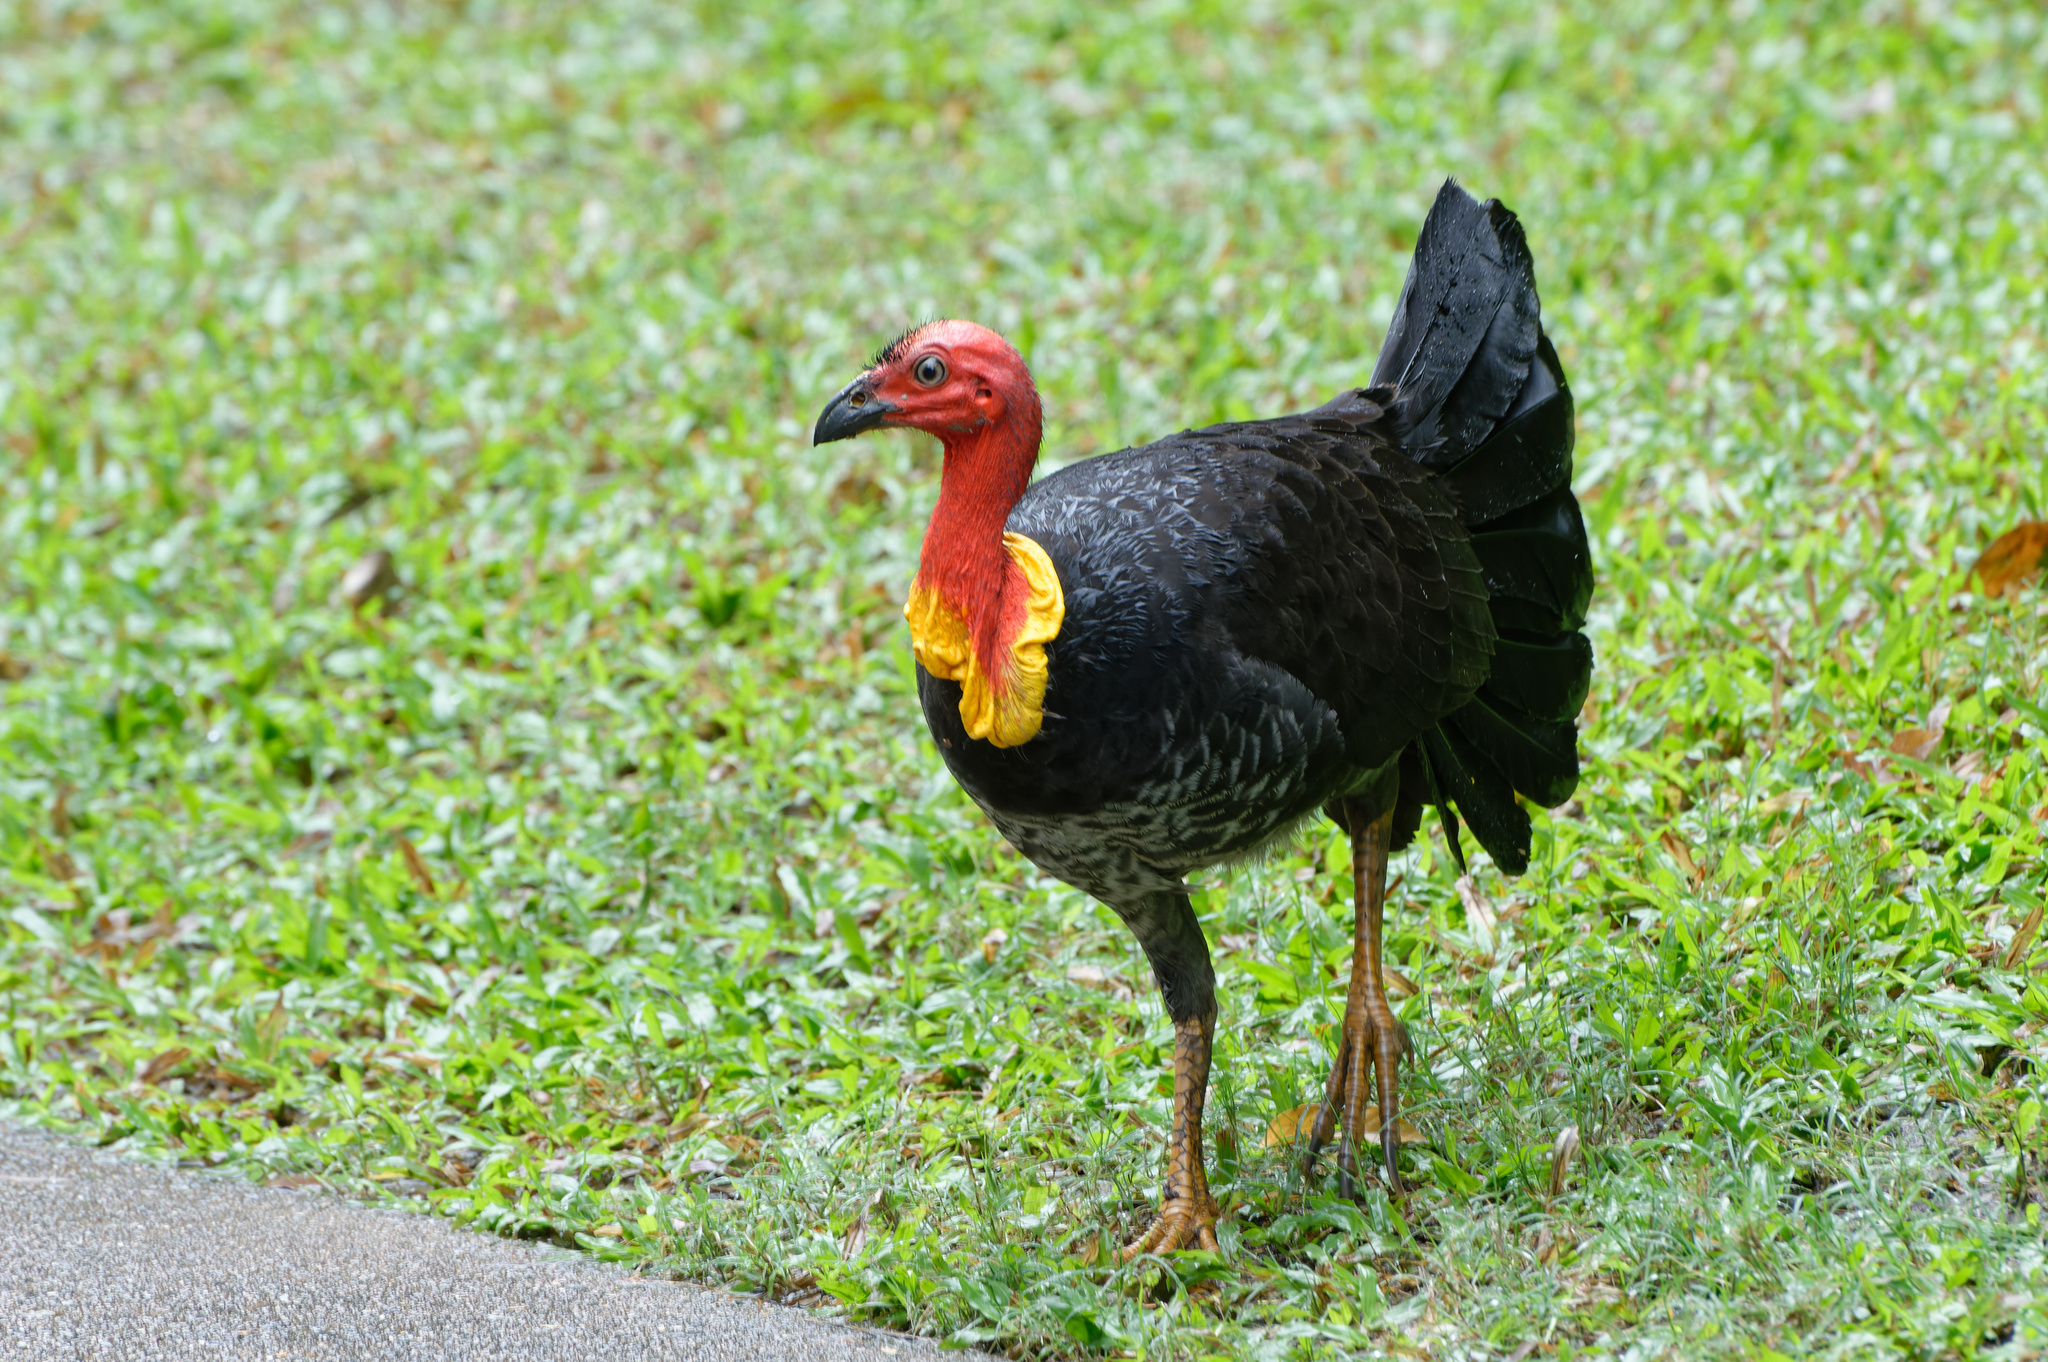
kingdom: Animalia
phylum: Chordata
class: Aves
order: Galliformes
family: Megapodiidae
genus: Alectura
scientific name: Alectura lathami
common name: Australian brushturkey
